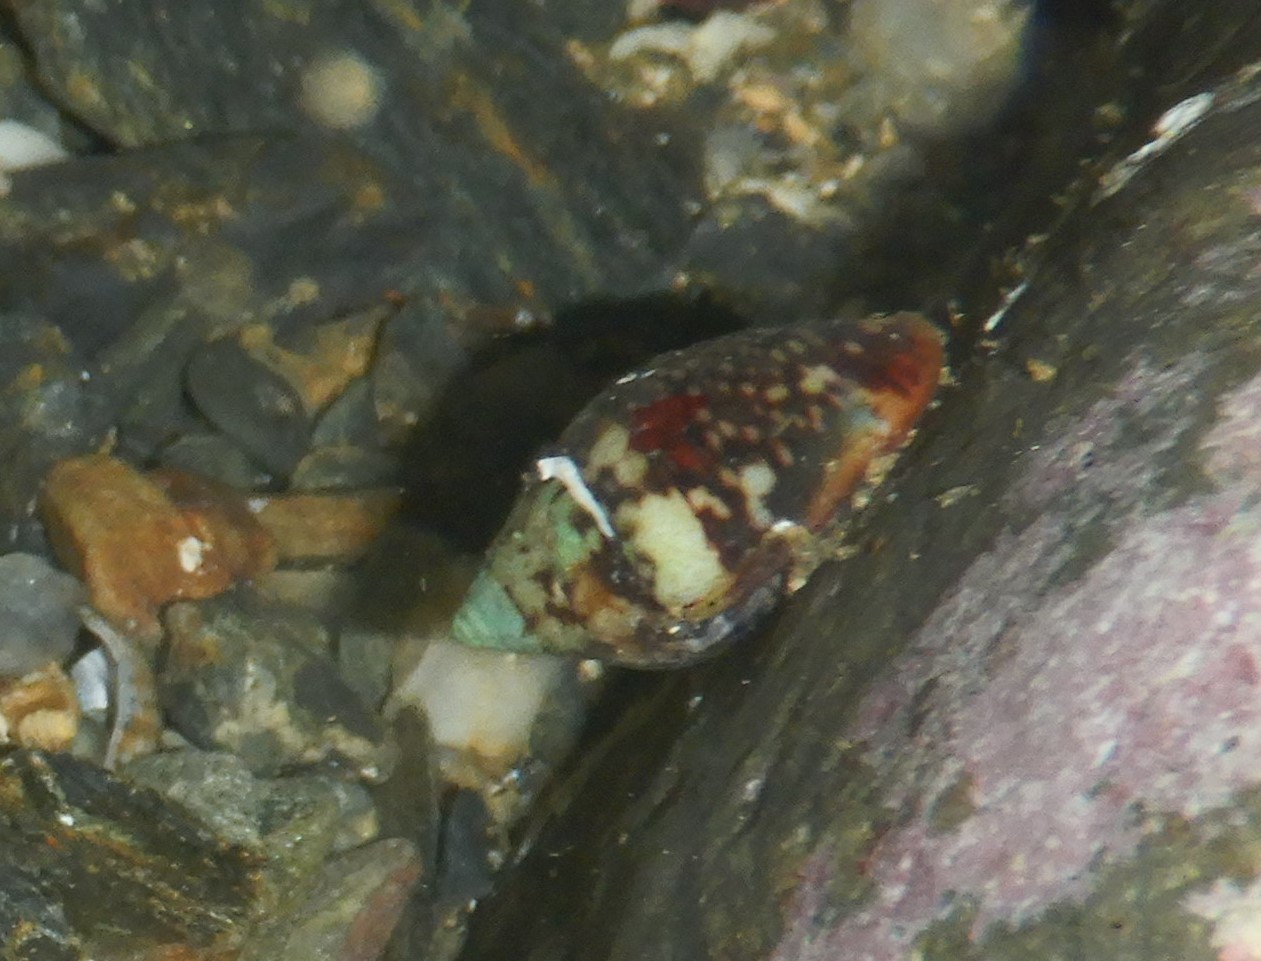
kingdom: Animalia
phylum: Mollusca
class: Gastropoda
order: Neogastropoda
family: Columbellidae
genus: Columbella
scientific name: Columbella rustica
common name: Rustic dove shell
